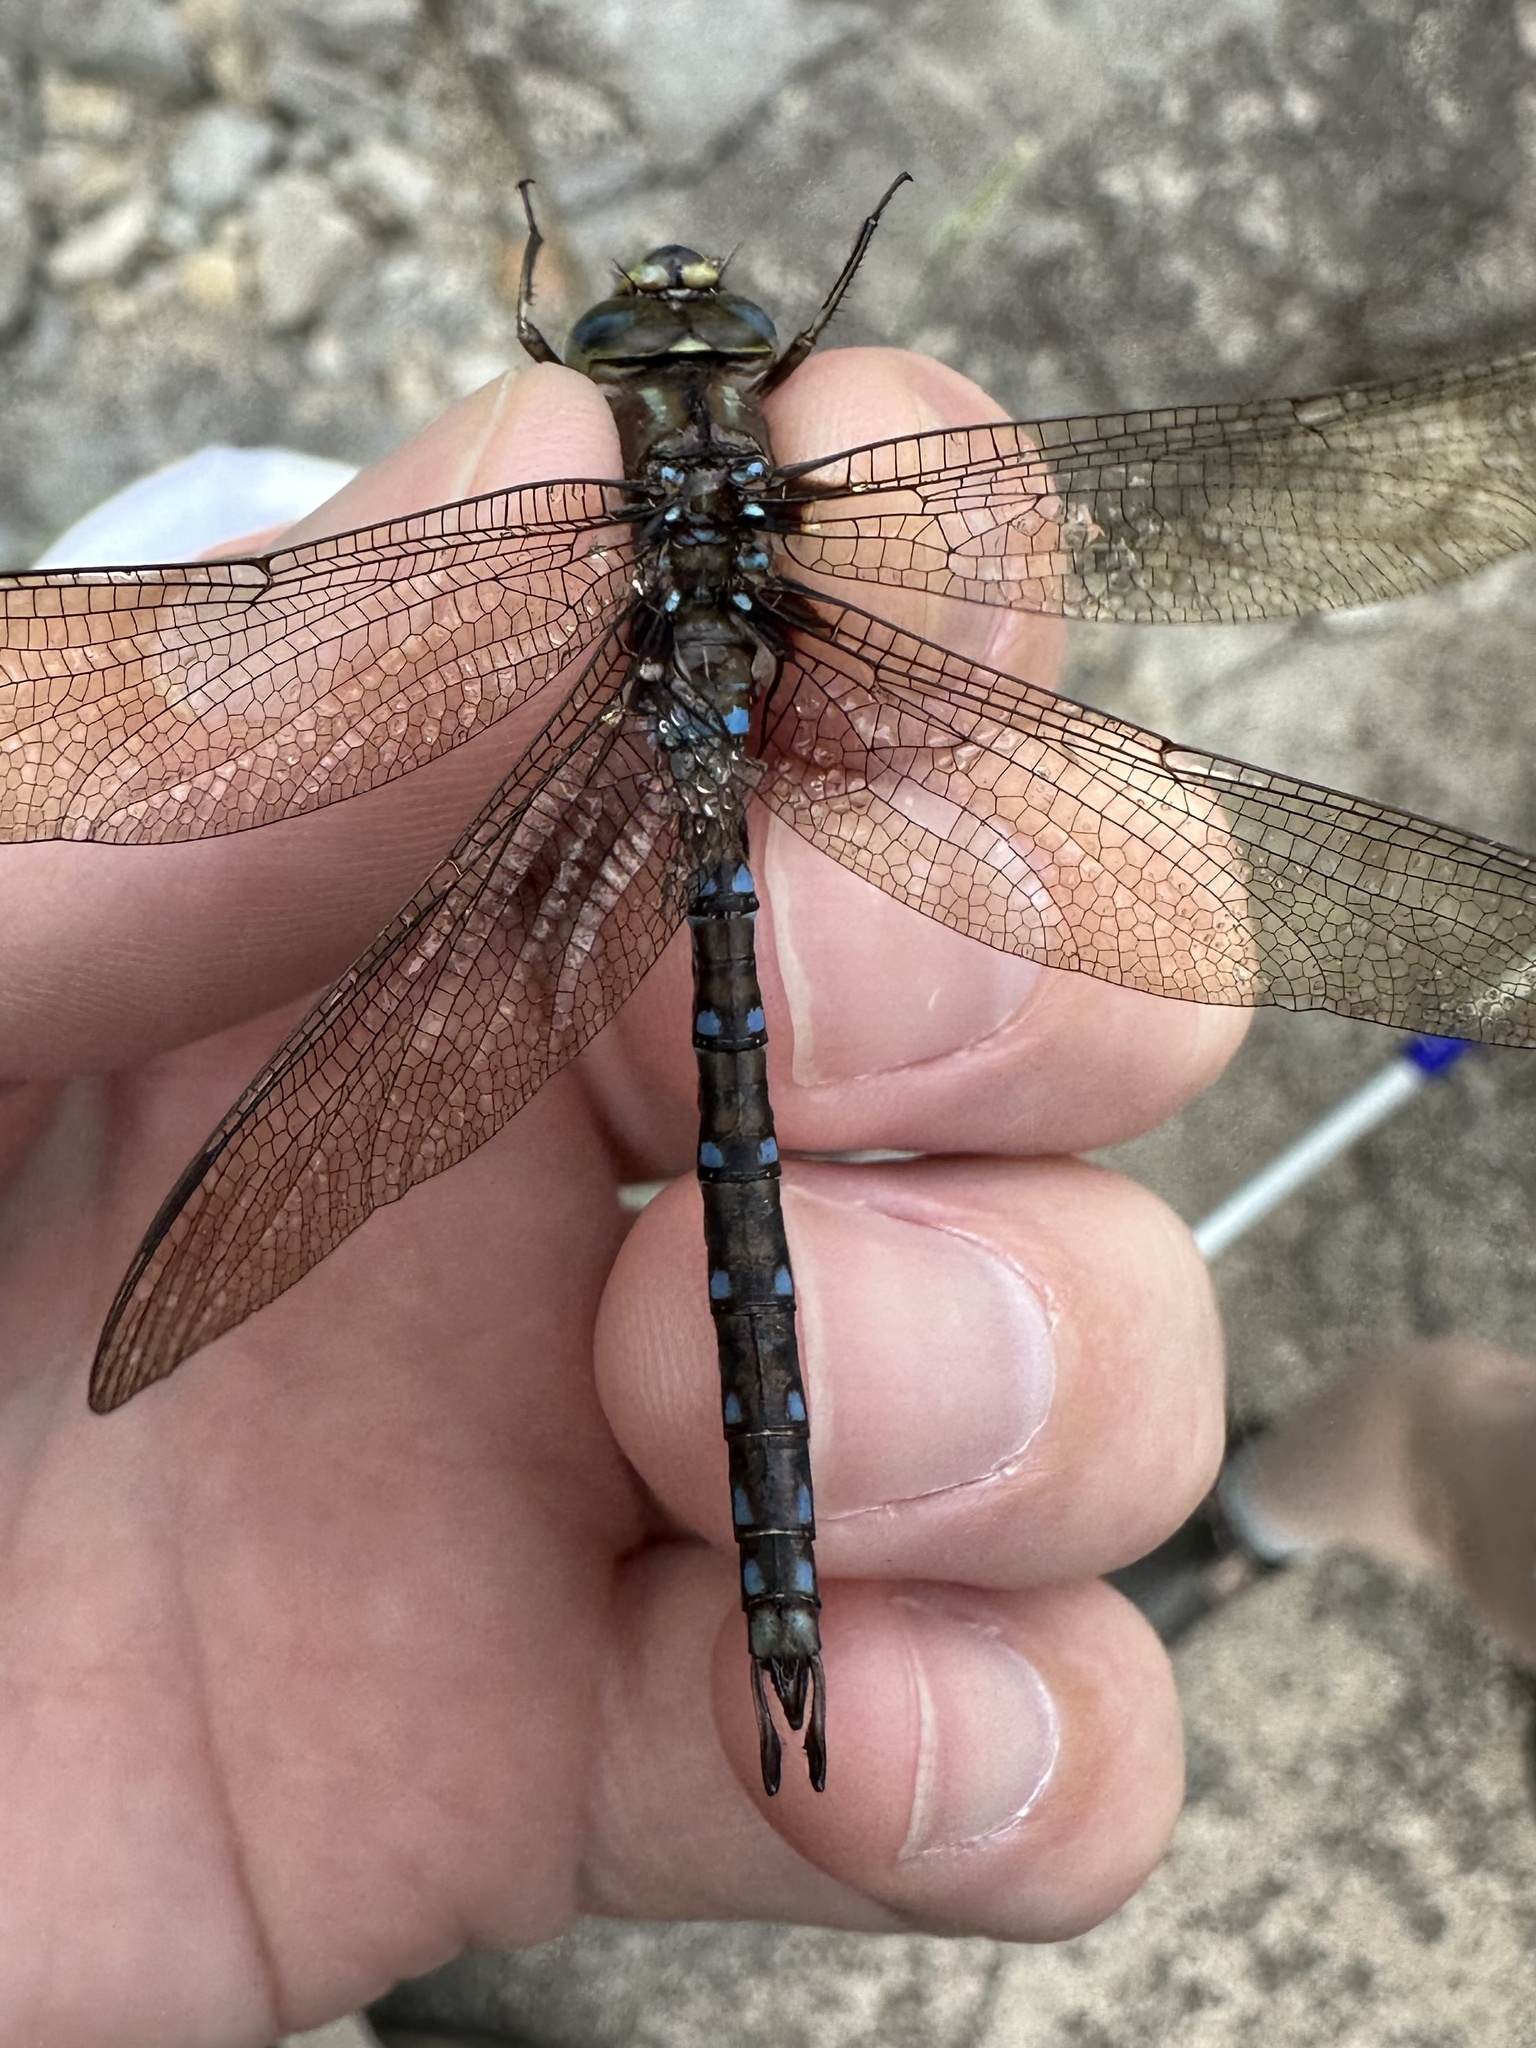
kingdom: Animalia
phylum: Arthropoda
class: Insecta
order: Odonata
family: Aeshnidae
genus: Basiaeschna
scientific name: Basiaeschna janata
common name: Springtime darner
